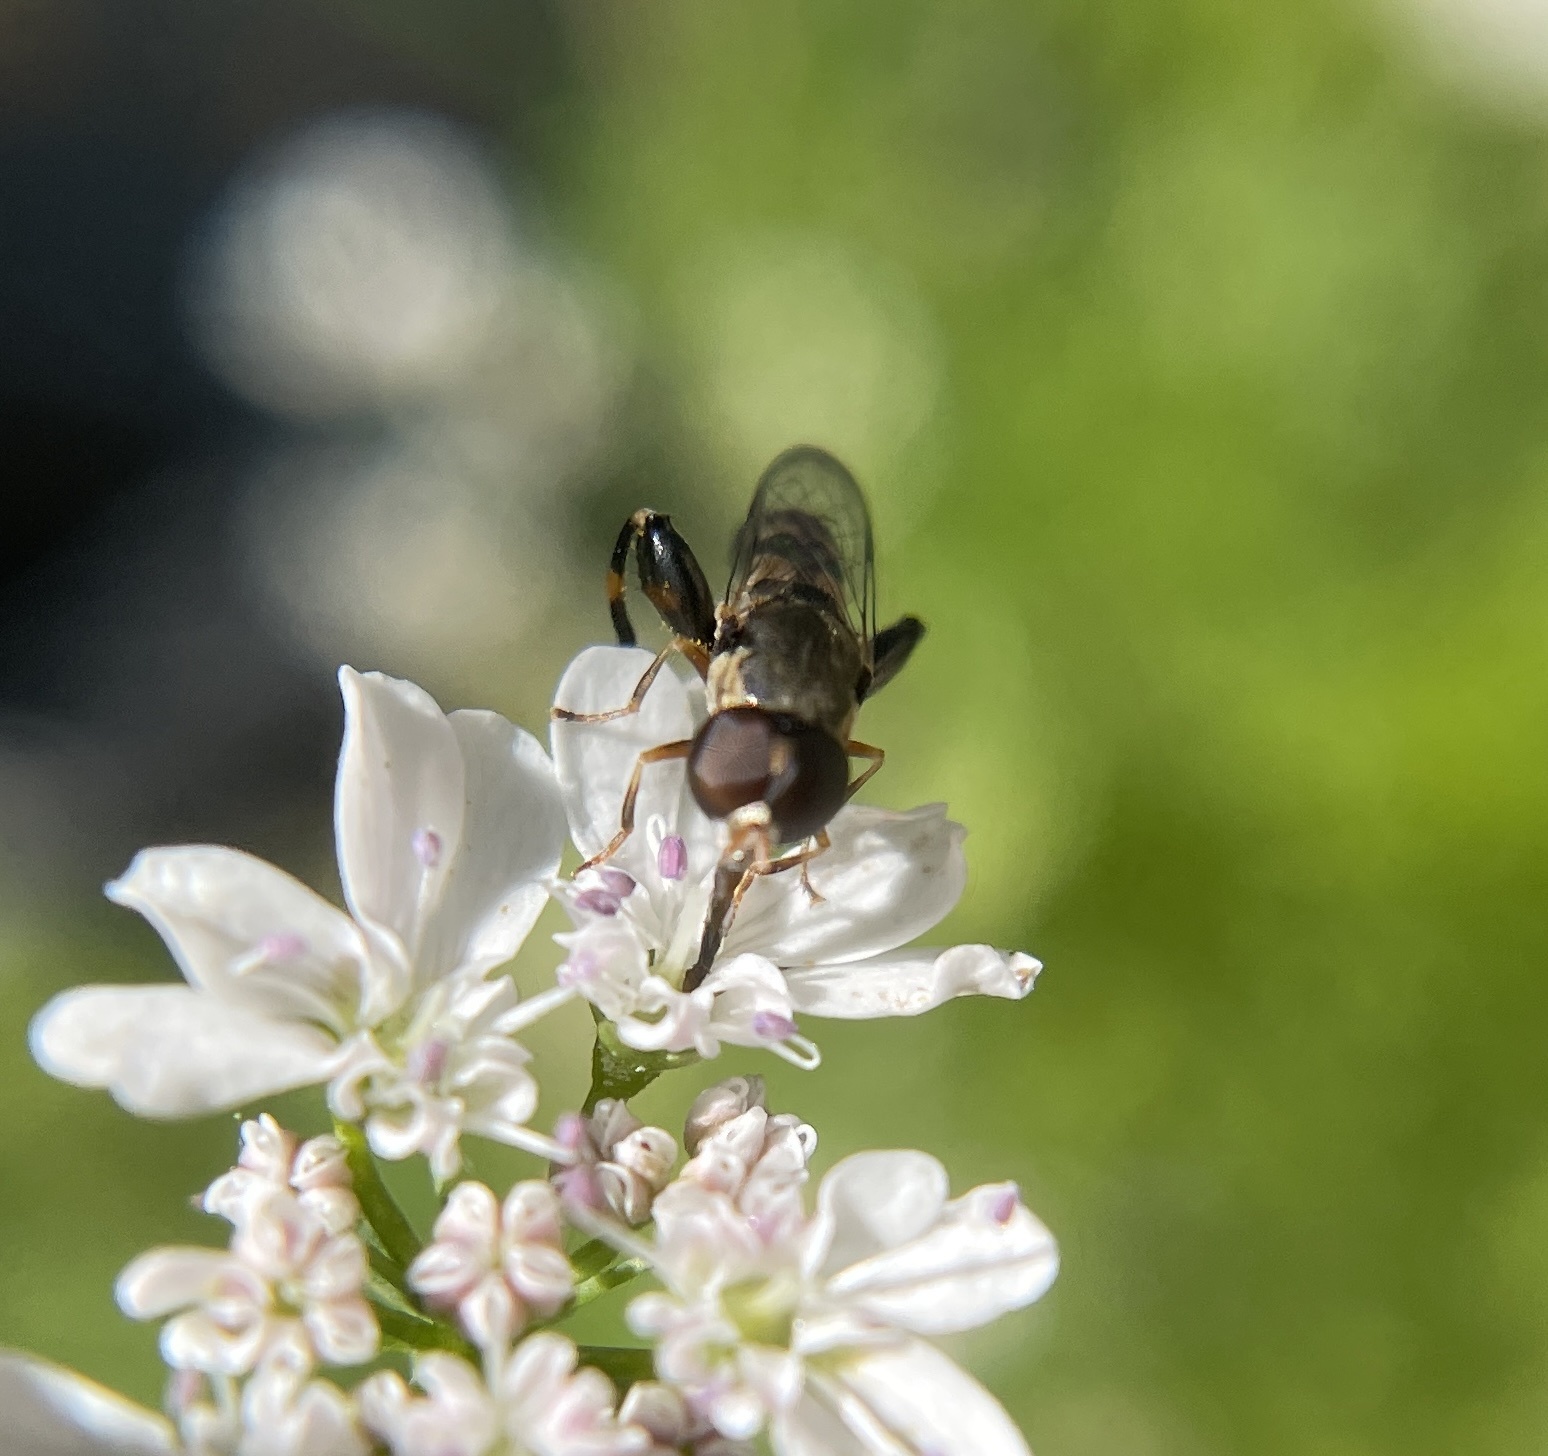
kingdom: Animalia
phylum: Arthropoda
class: Insecta
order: Diptera
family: Syrphidae
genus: Syritta
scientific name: Syritta pipiens
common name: Hover fly
